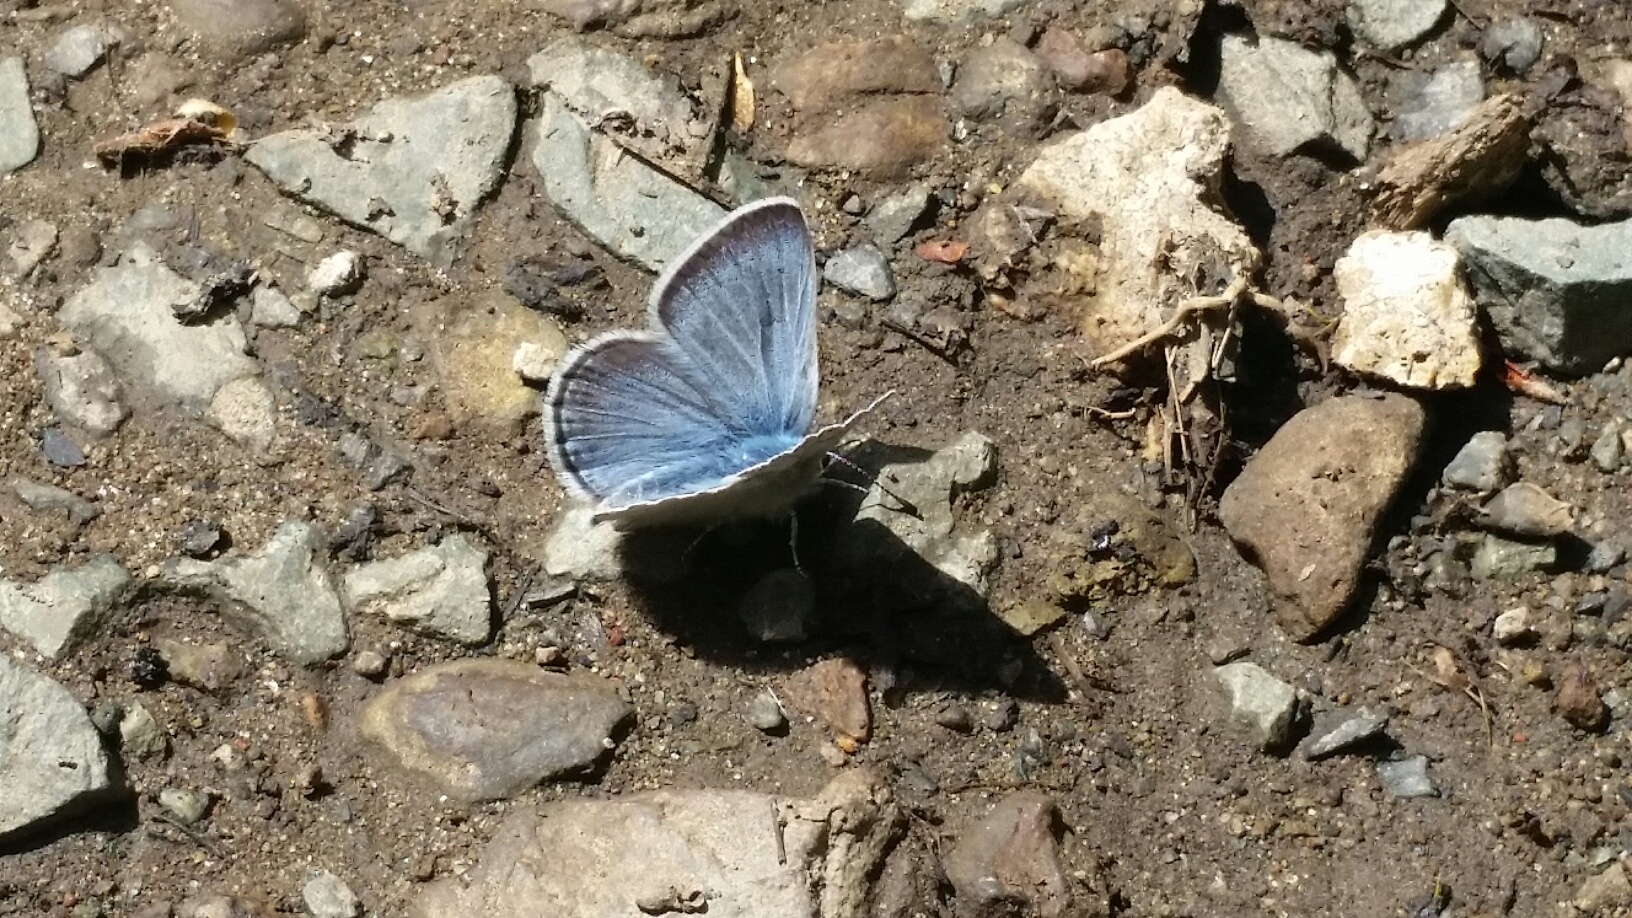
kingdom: Animalia
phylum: Arthropoda
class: Insecta
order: Lepidoptera
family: Lycaenidae
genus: Icaricia
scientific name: Icaricia icarioides
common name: Boisduval's blue
